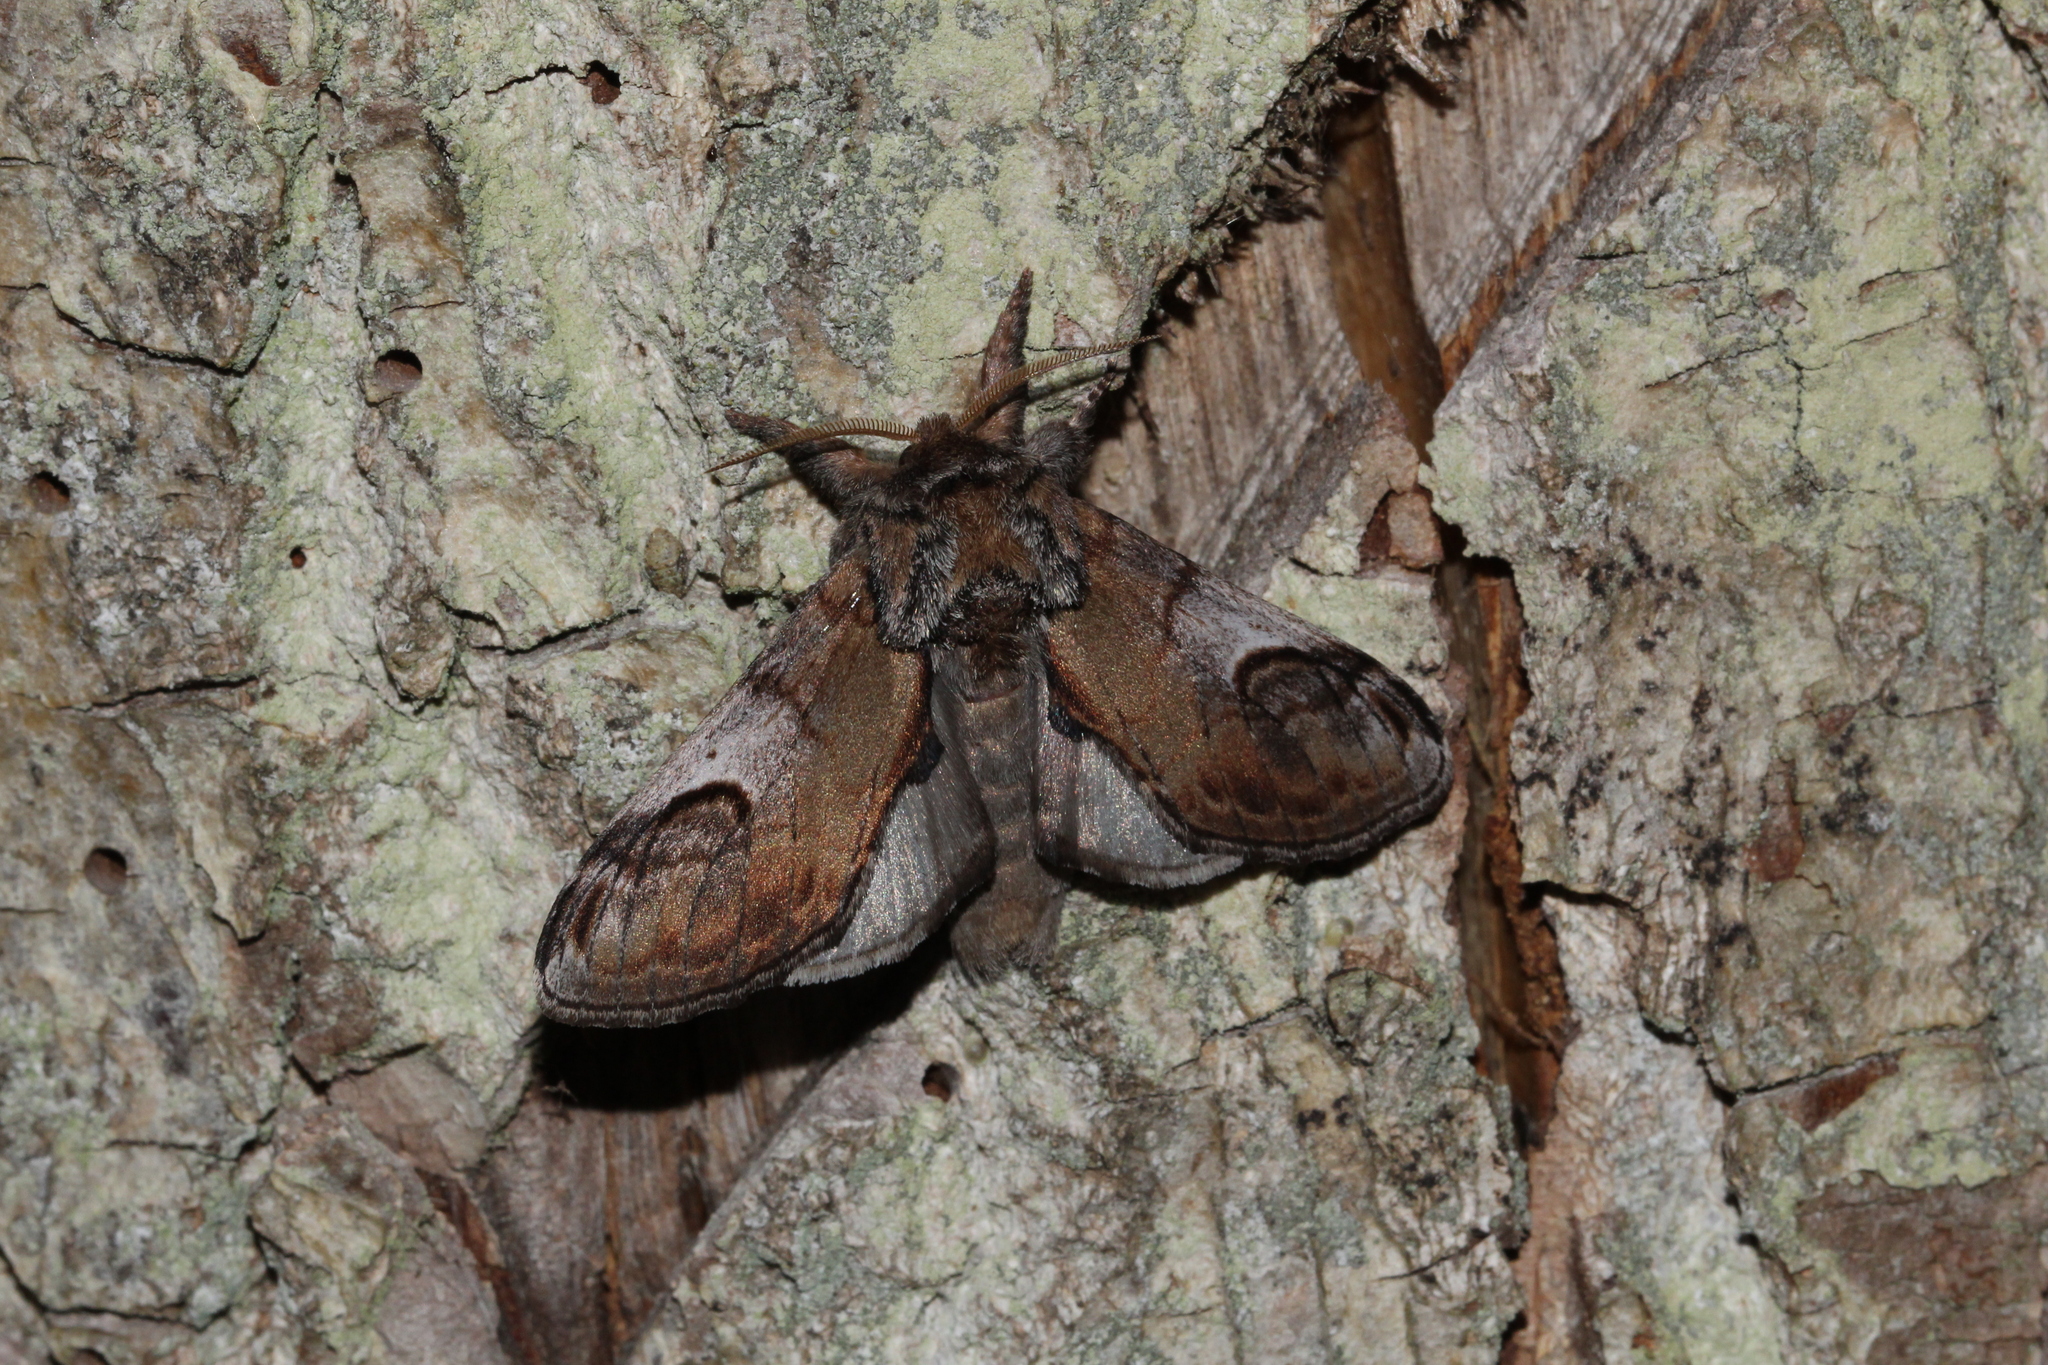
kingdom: Animalia
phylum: Arthropoda
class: Insecta
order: Lepidoptera
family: Notodontidae
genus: Notodonta
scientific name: Notodonta ziczac
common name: Pebble prominent
